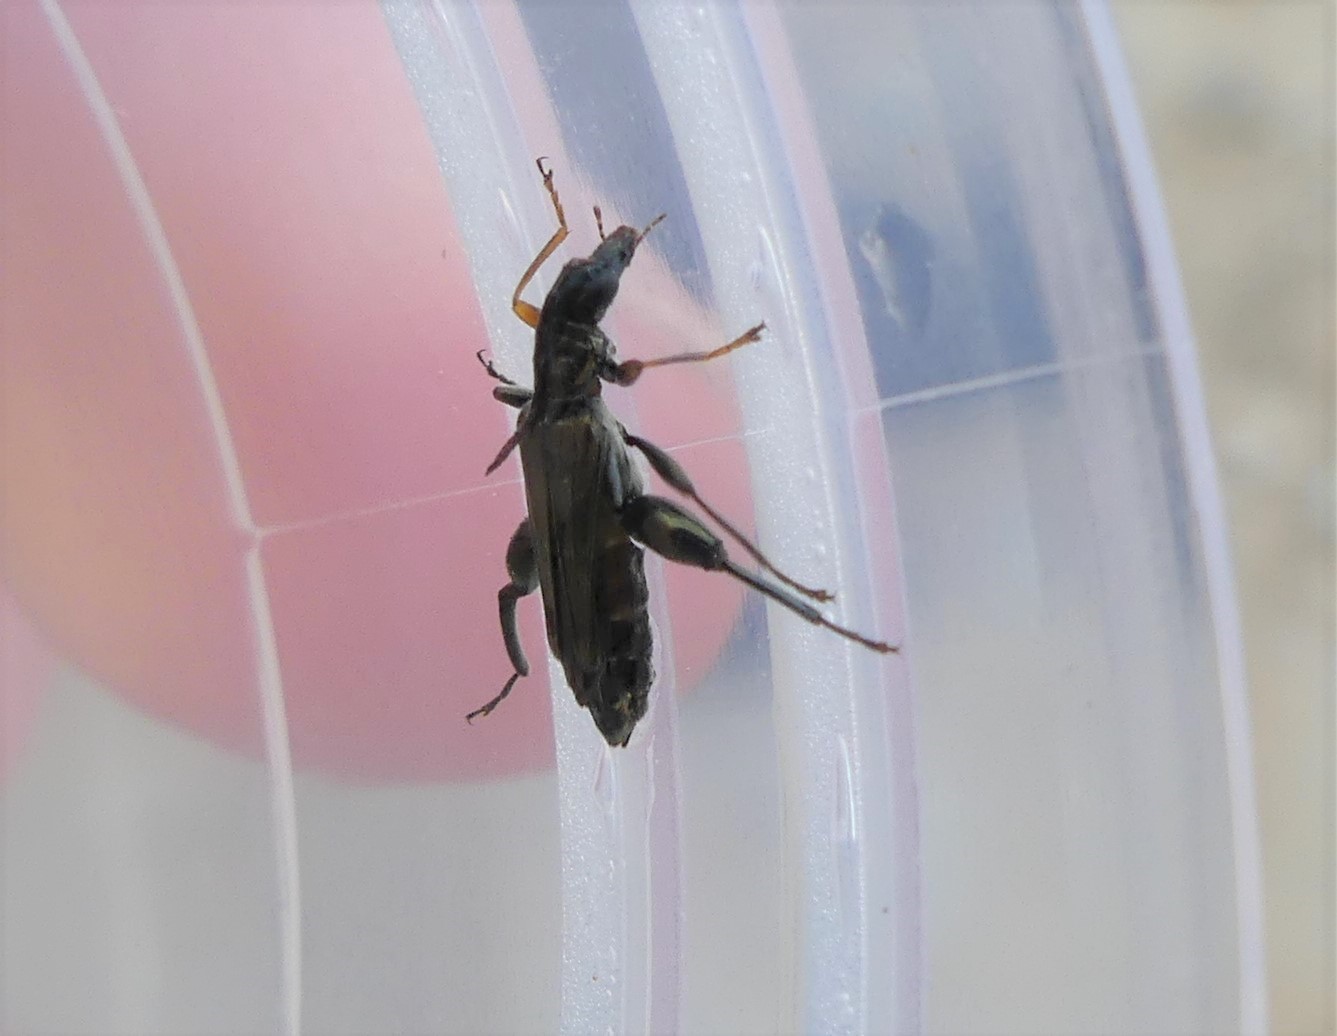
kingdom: Animalia
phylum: Arthropoda
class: Insecta
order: Coleoptera
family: Oedemeridae
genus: Oedemera
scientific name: Oedemera flavipes
